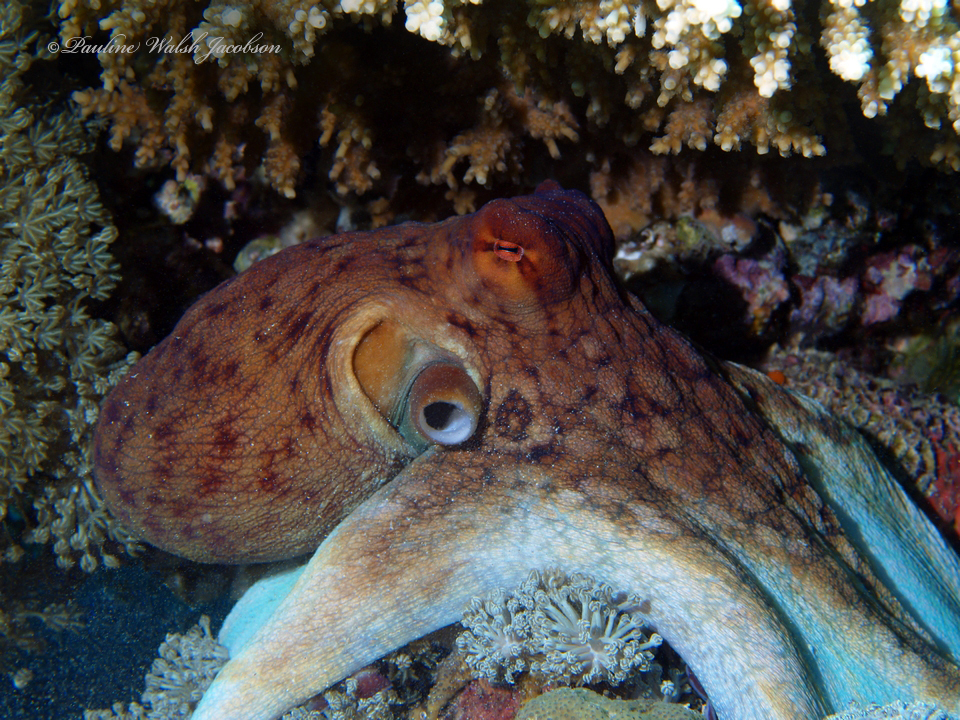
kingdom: Animalia
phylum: Mollusca
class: Cephalopoda
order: Octopoda
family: Octopodidae
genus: Octopus
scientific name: Octopus cyanea
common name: Cyane's octopus
